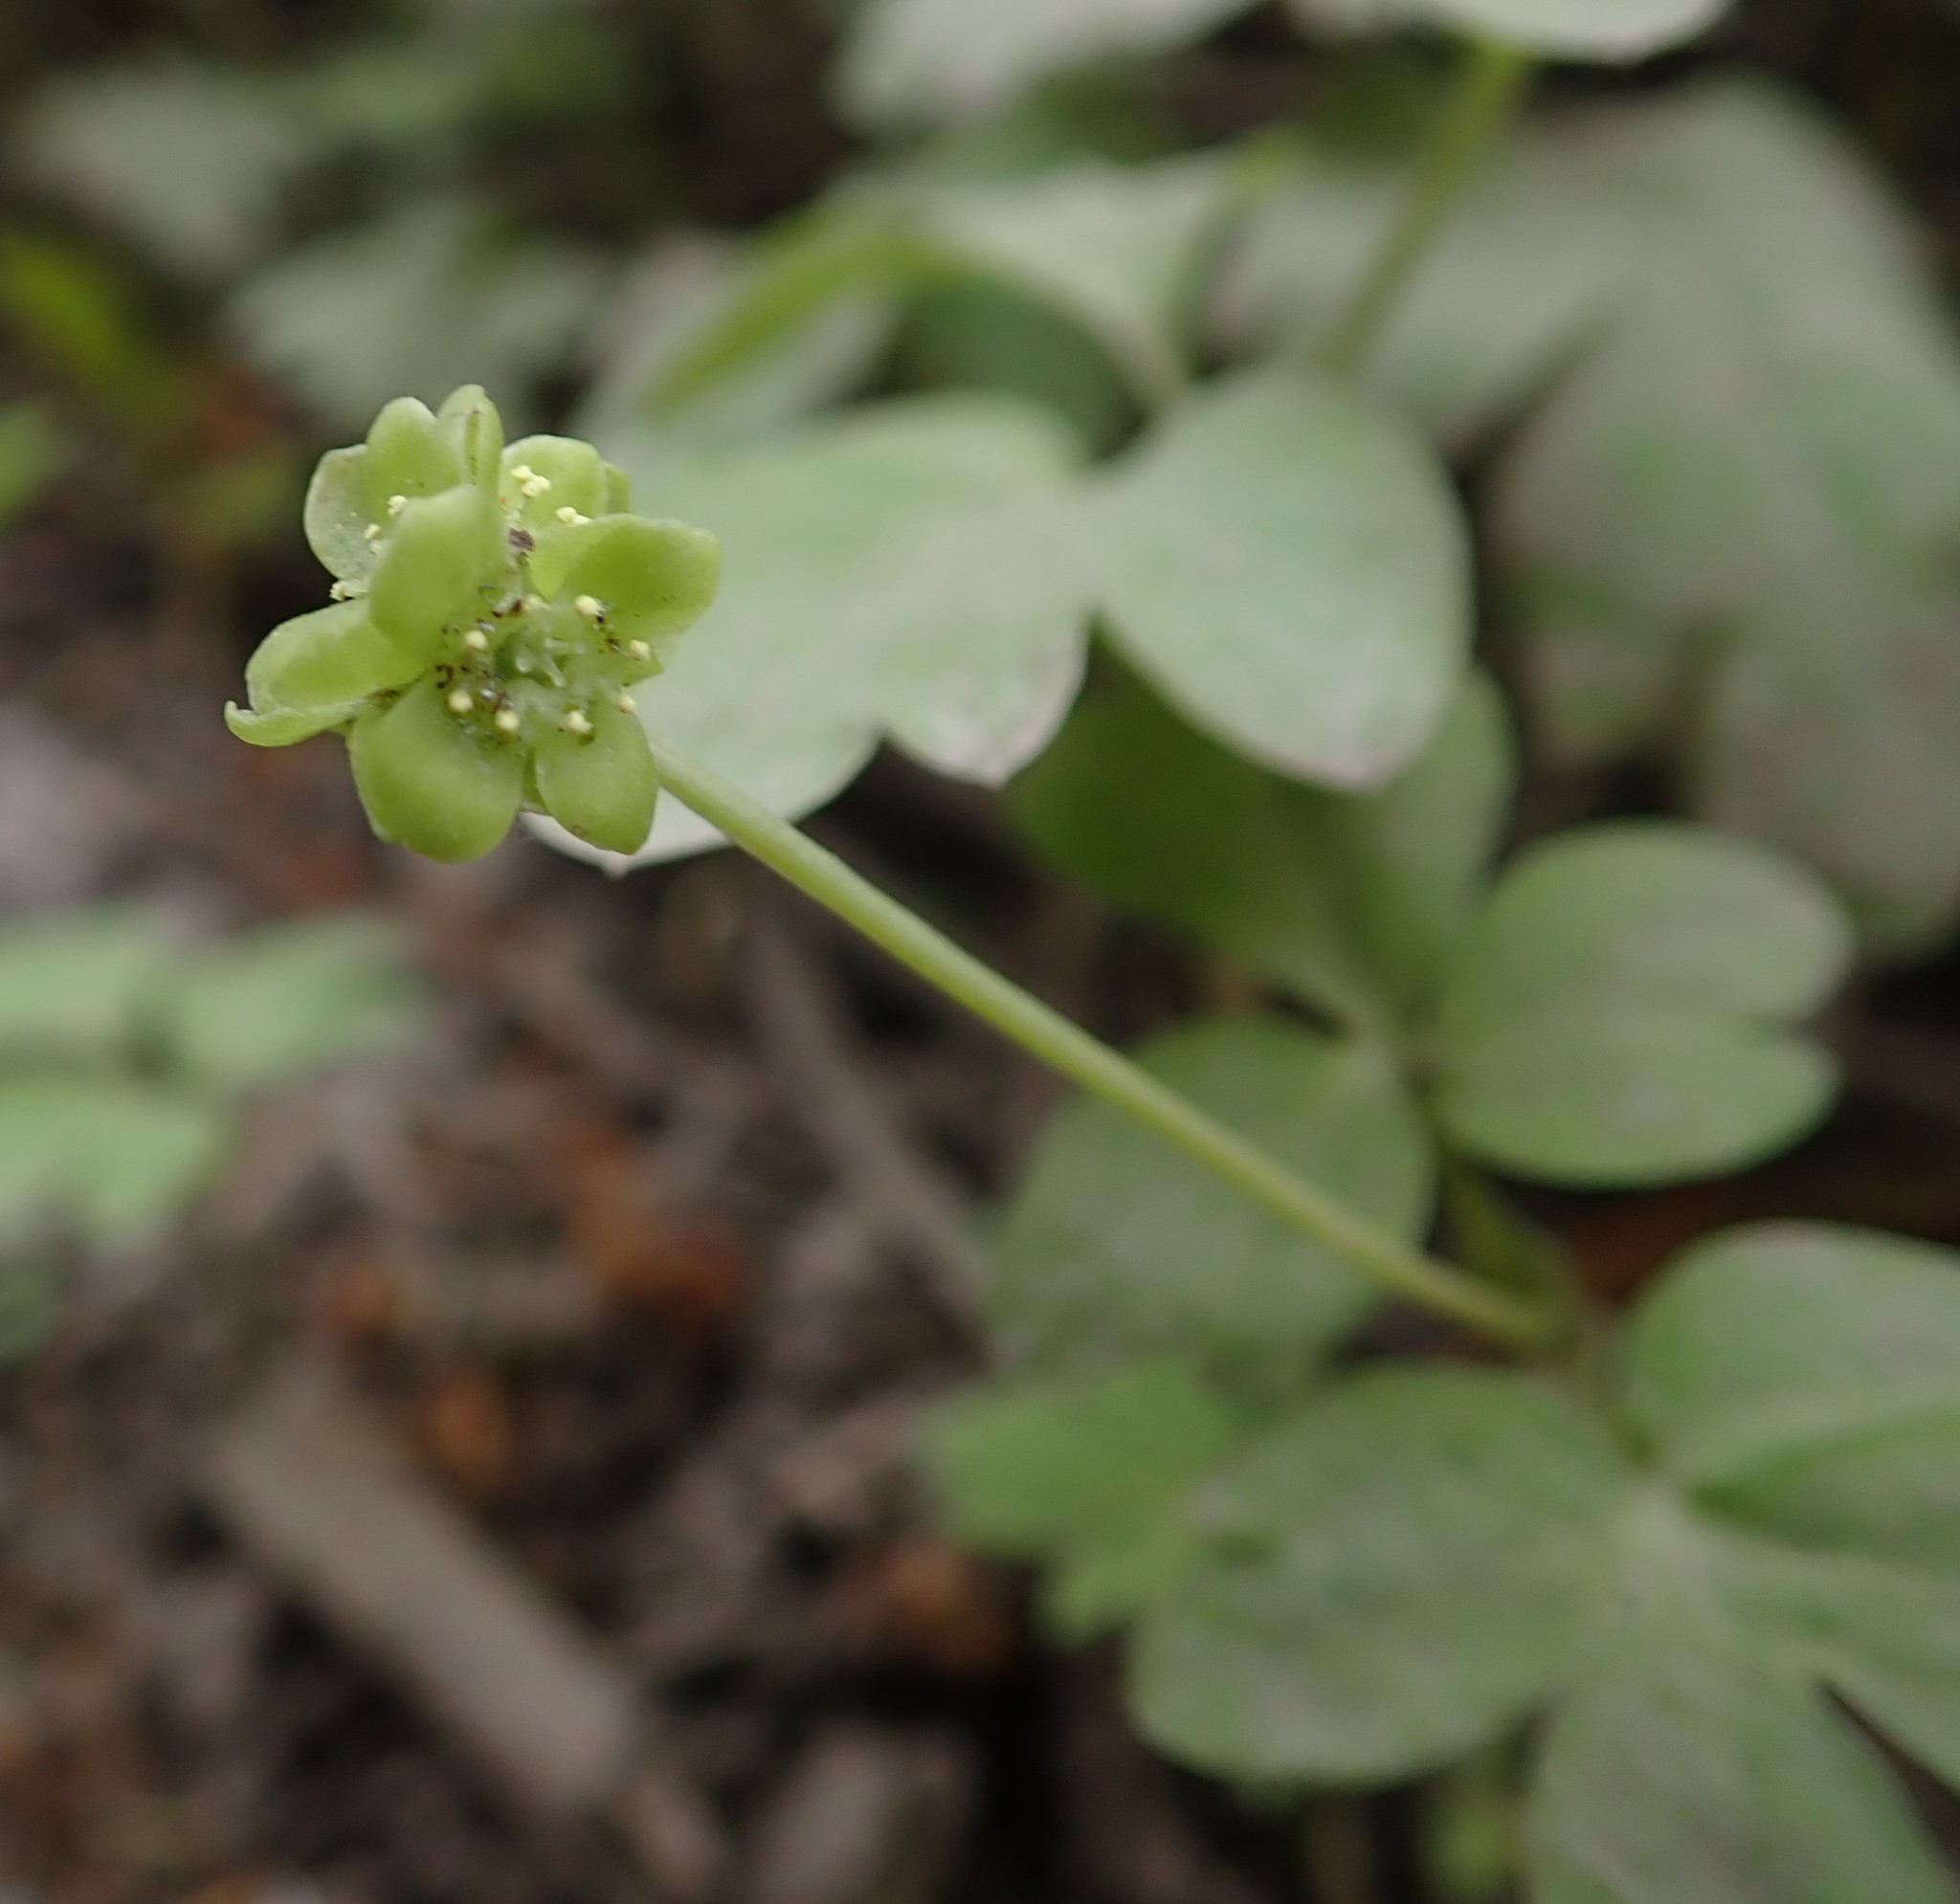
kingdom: Plantae
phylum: Tracheophyta
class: Magnoliopsida
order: Dipsacales
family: Viburnaceae
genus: Adoxa
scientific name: Adoxa moschatellina
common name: Moschatel
